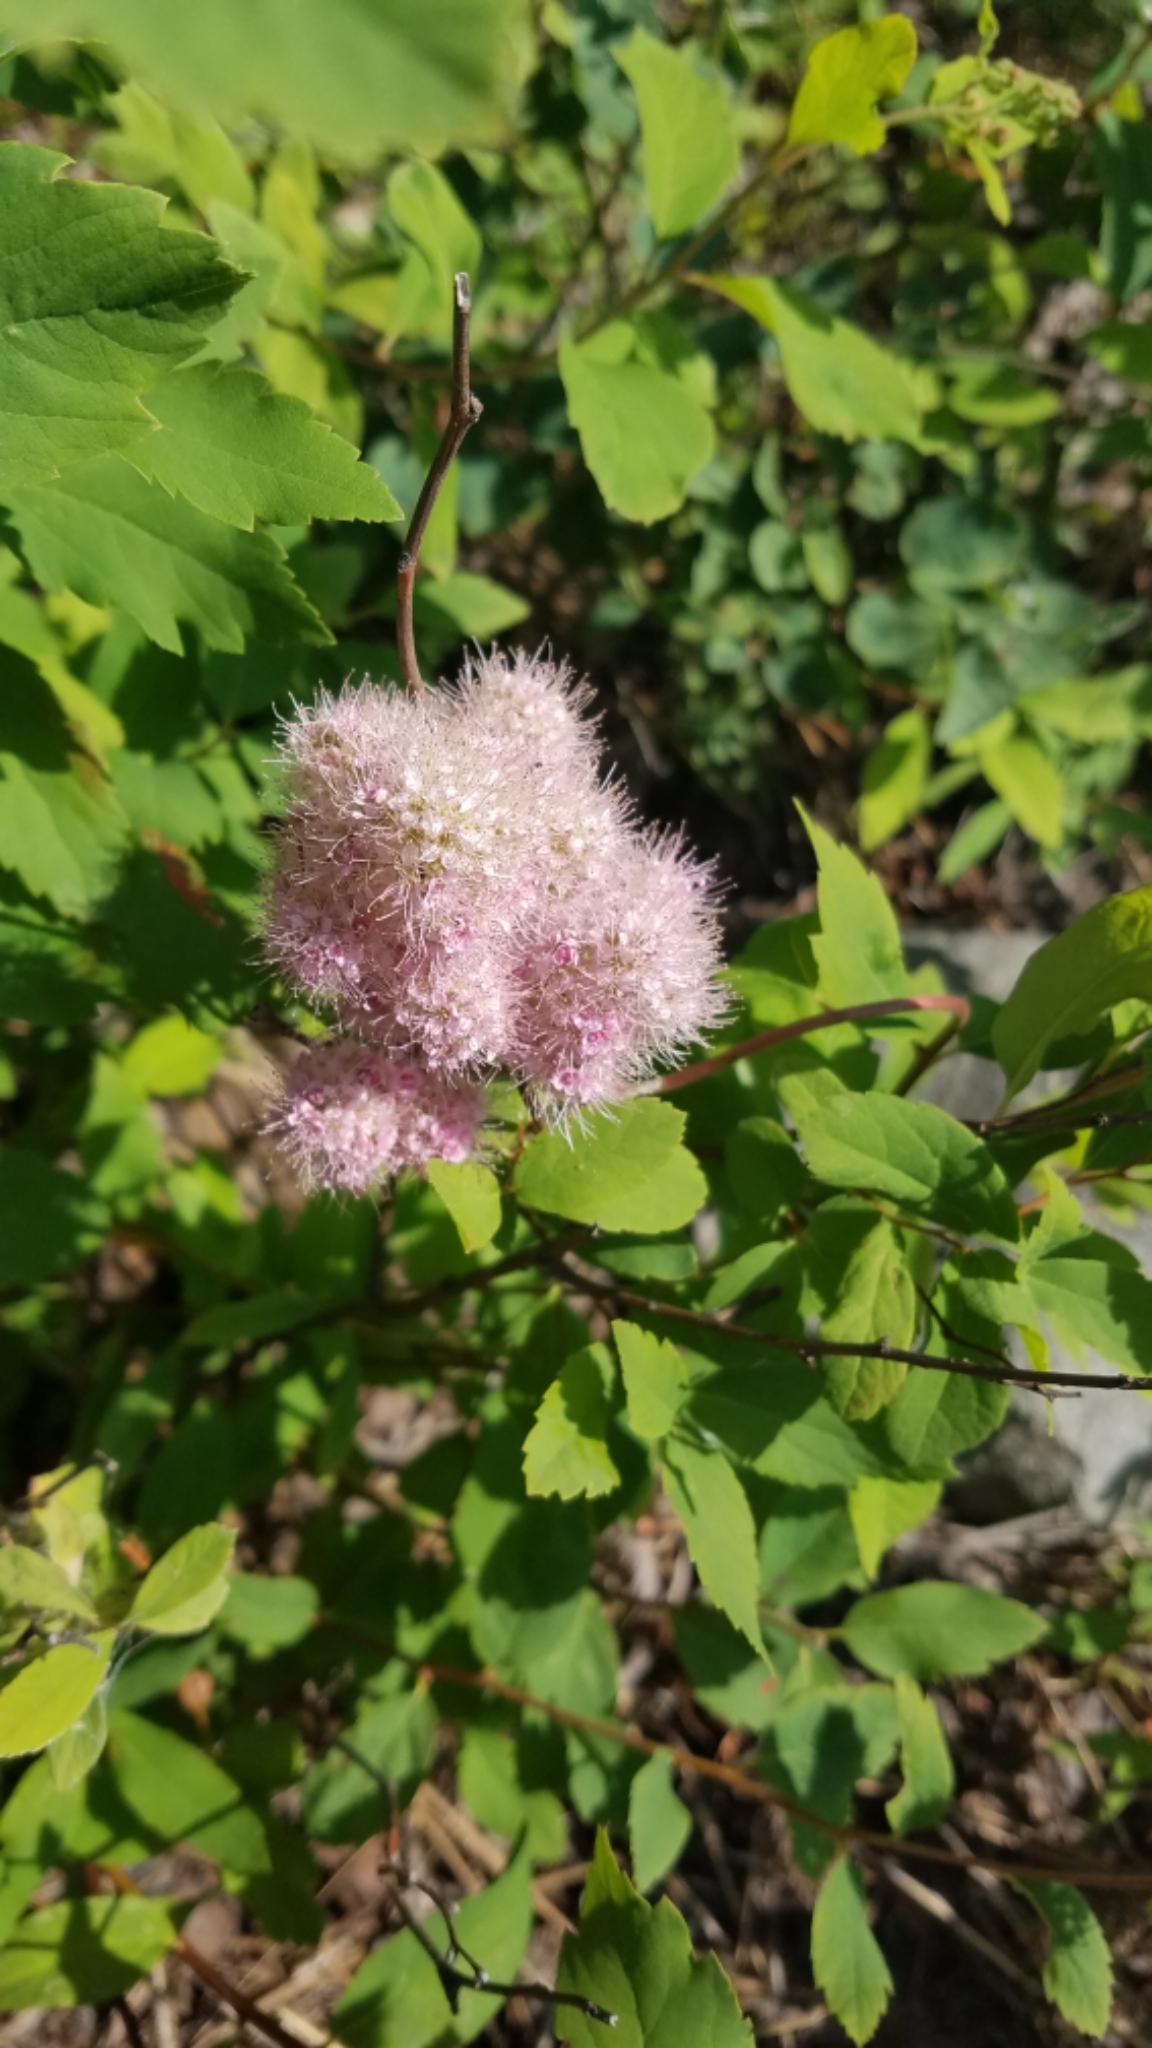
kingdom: Plantae
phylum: Tracheophyta
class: Magnoliopsida
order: Rosales
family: Rosaceae
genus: Spiraea
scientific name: Spiraea pyramidata
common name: Pyramid meadowsweet
